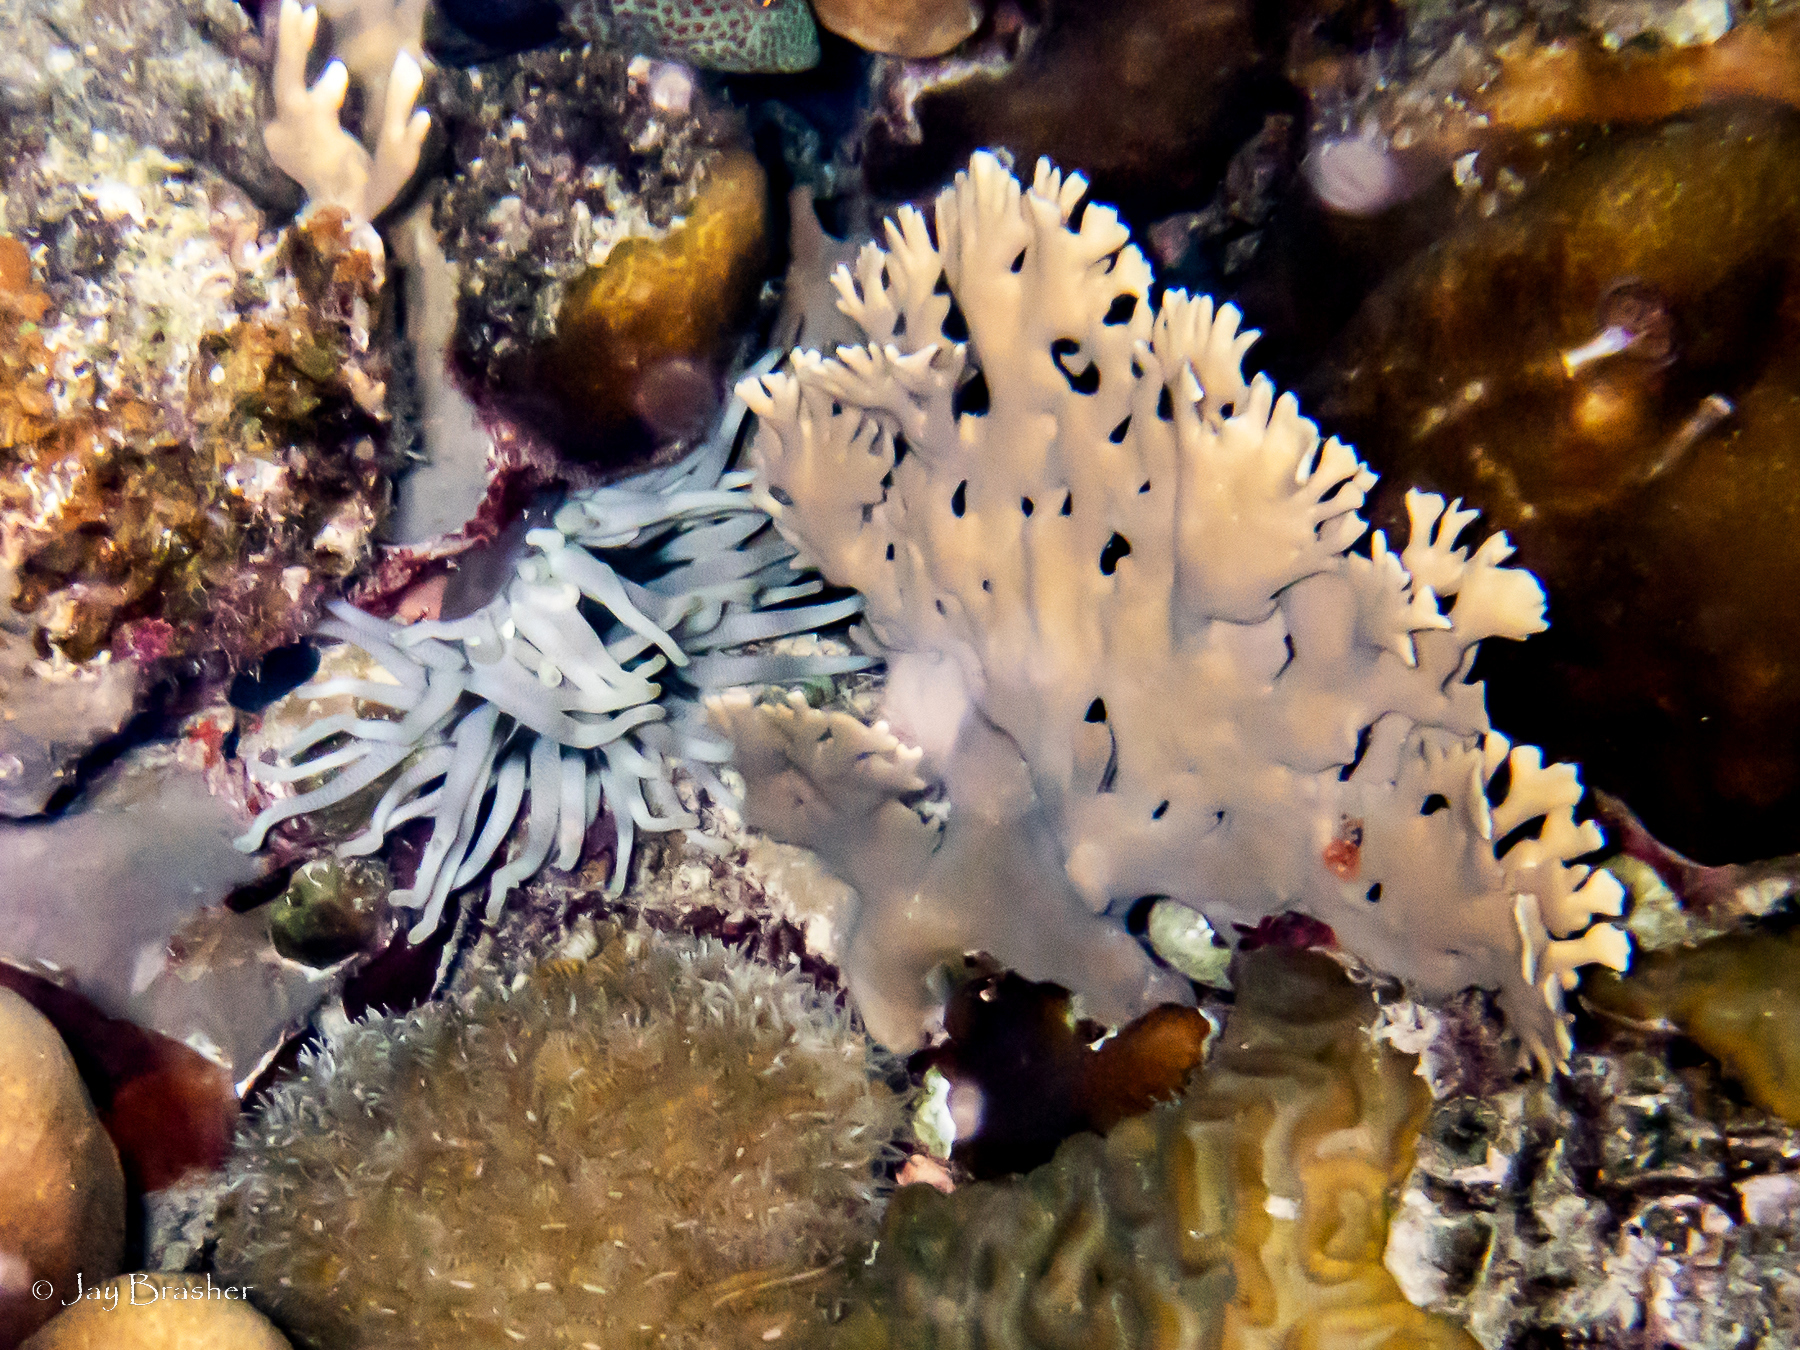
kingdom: Animalia
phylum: Cnidaria
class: Anthozoa
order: Actiniaria
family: Actiniidae
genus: Condylactis
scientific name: Condylactis gigantea
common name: Giant caribbean anemone
